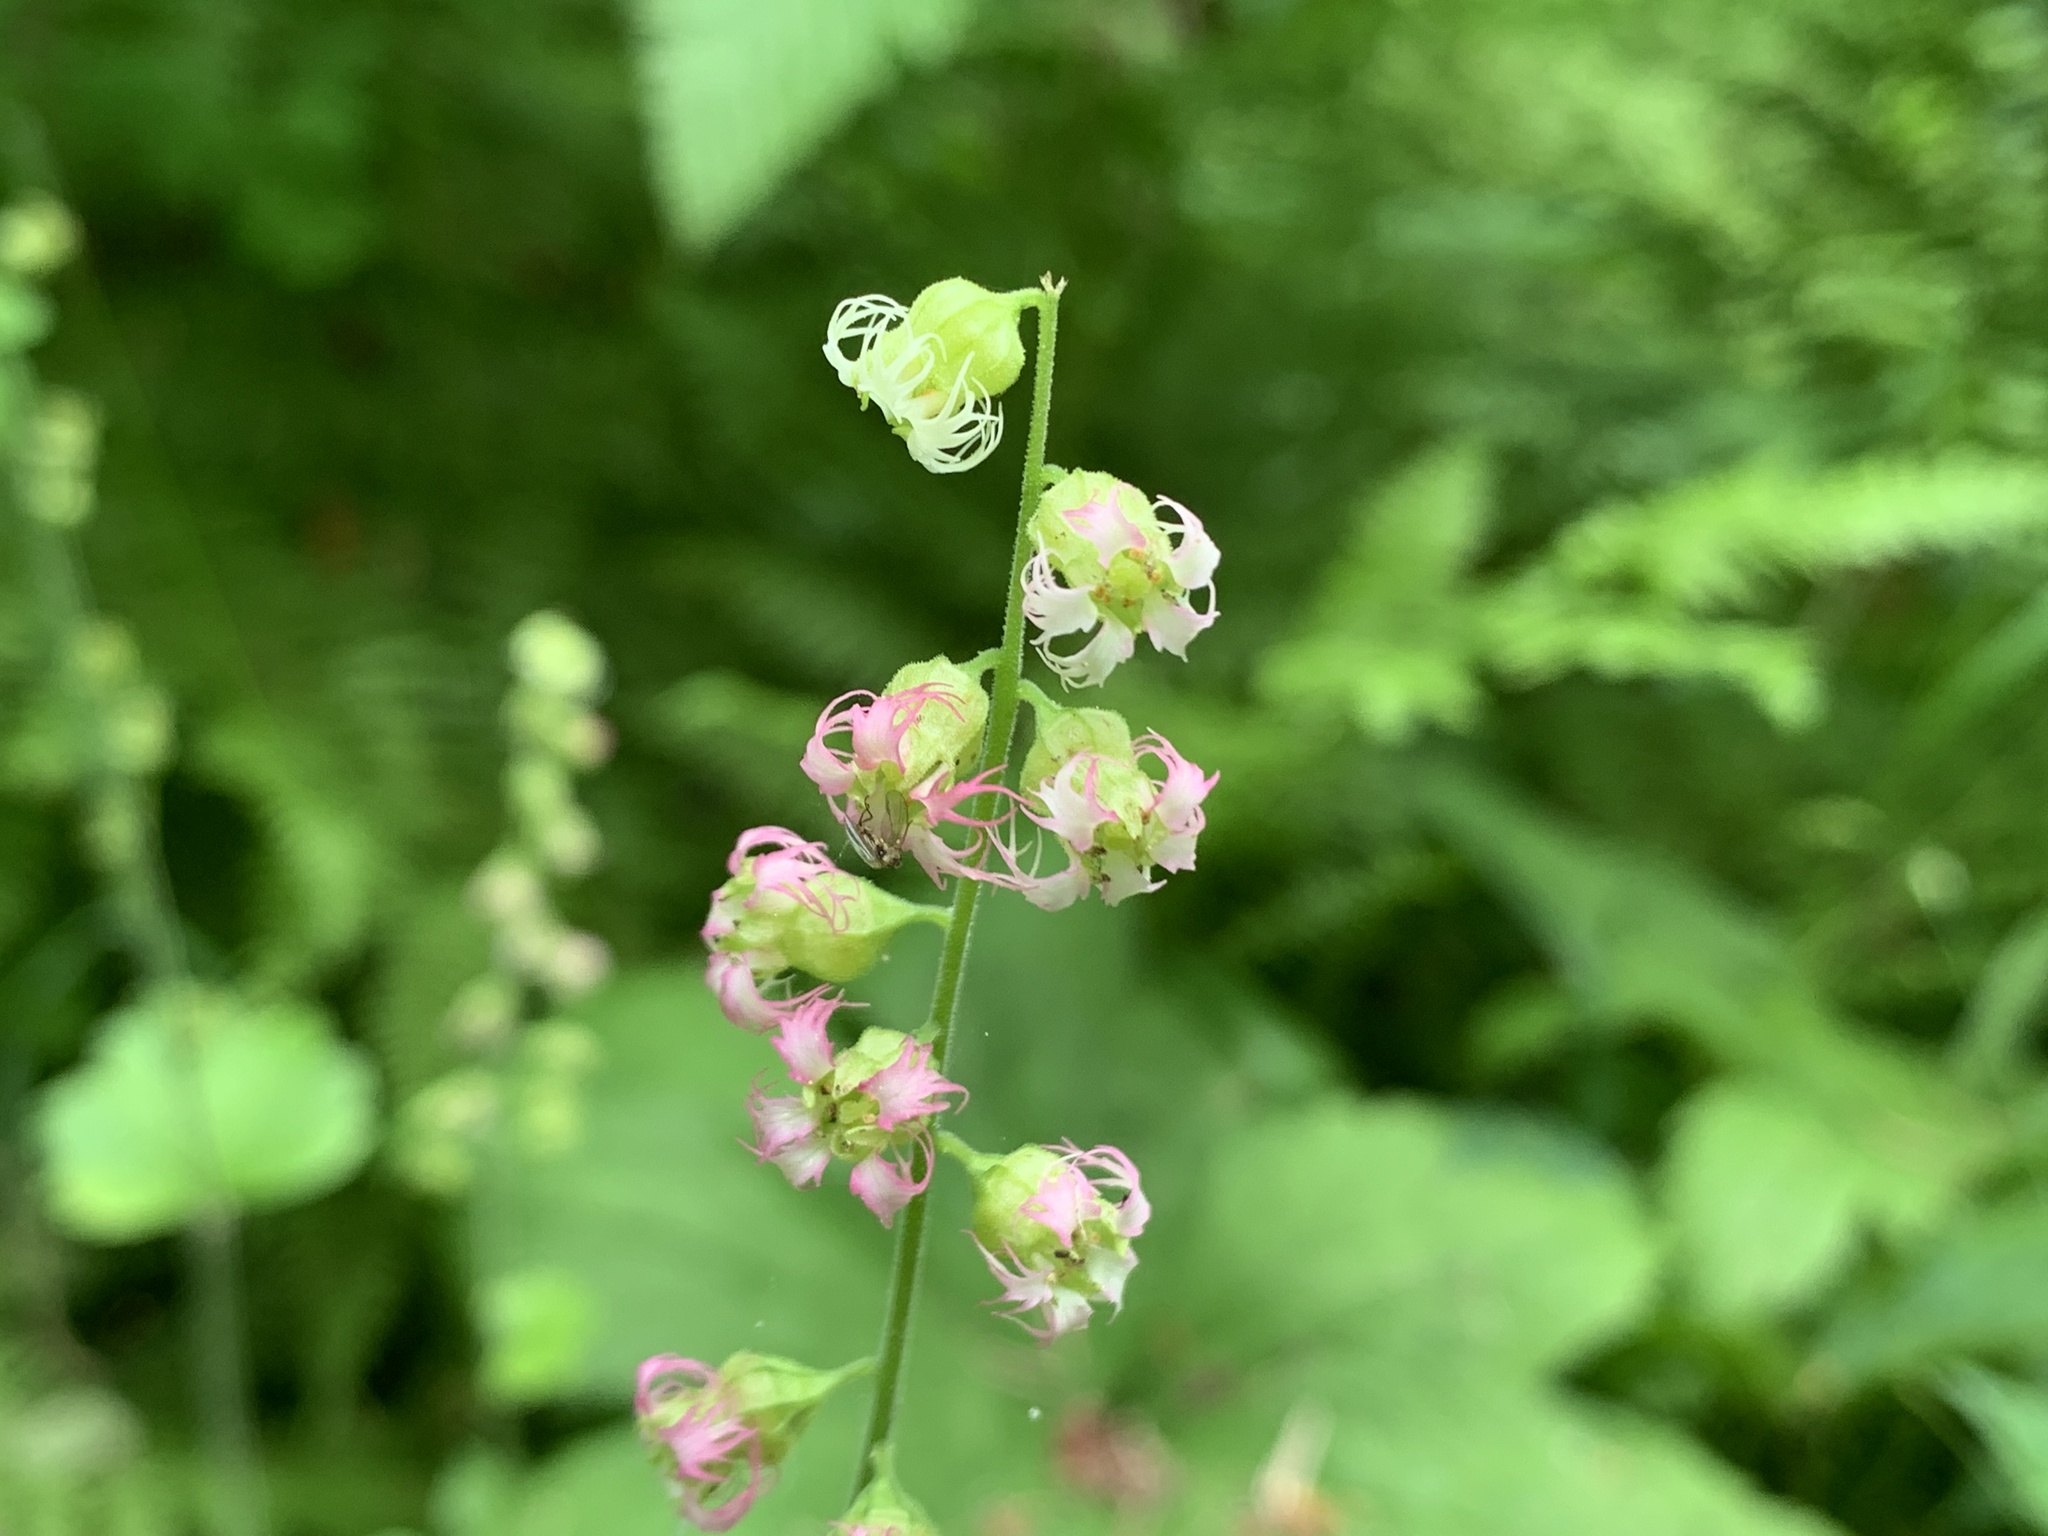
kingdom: Plantae
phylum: Tracheophyta
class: Magnoliopsida
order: Saxifragales
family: Saxifragaceae
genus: Tellima
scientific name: Tellima grandiflora
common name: Fringecups
